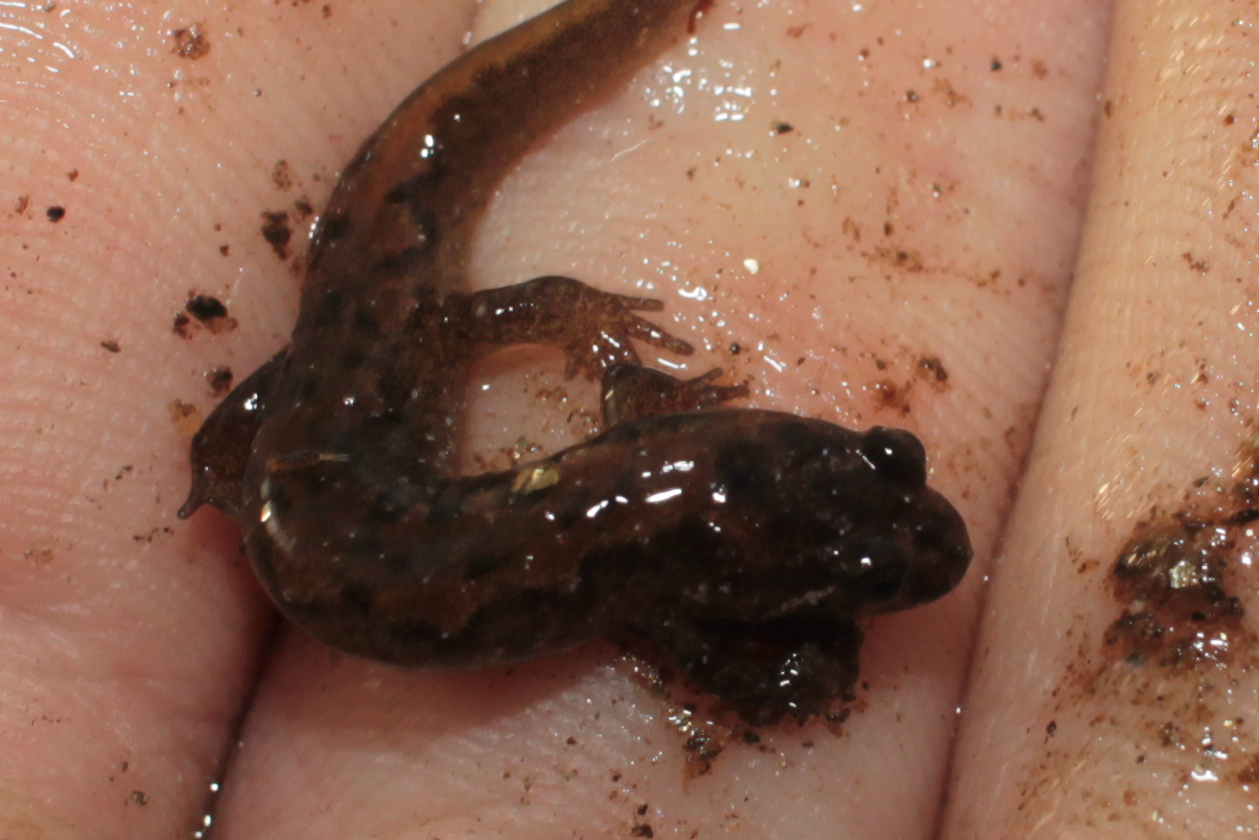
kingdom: Animalia
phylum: Chordata
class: Amphibia
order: Caudata
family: Plethodontidae
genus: Desmognathus
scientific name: Desmognathus santeetlah
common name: Santeetlah dusky salamander
